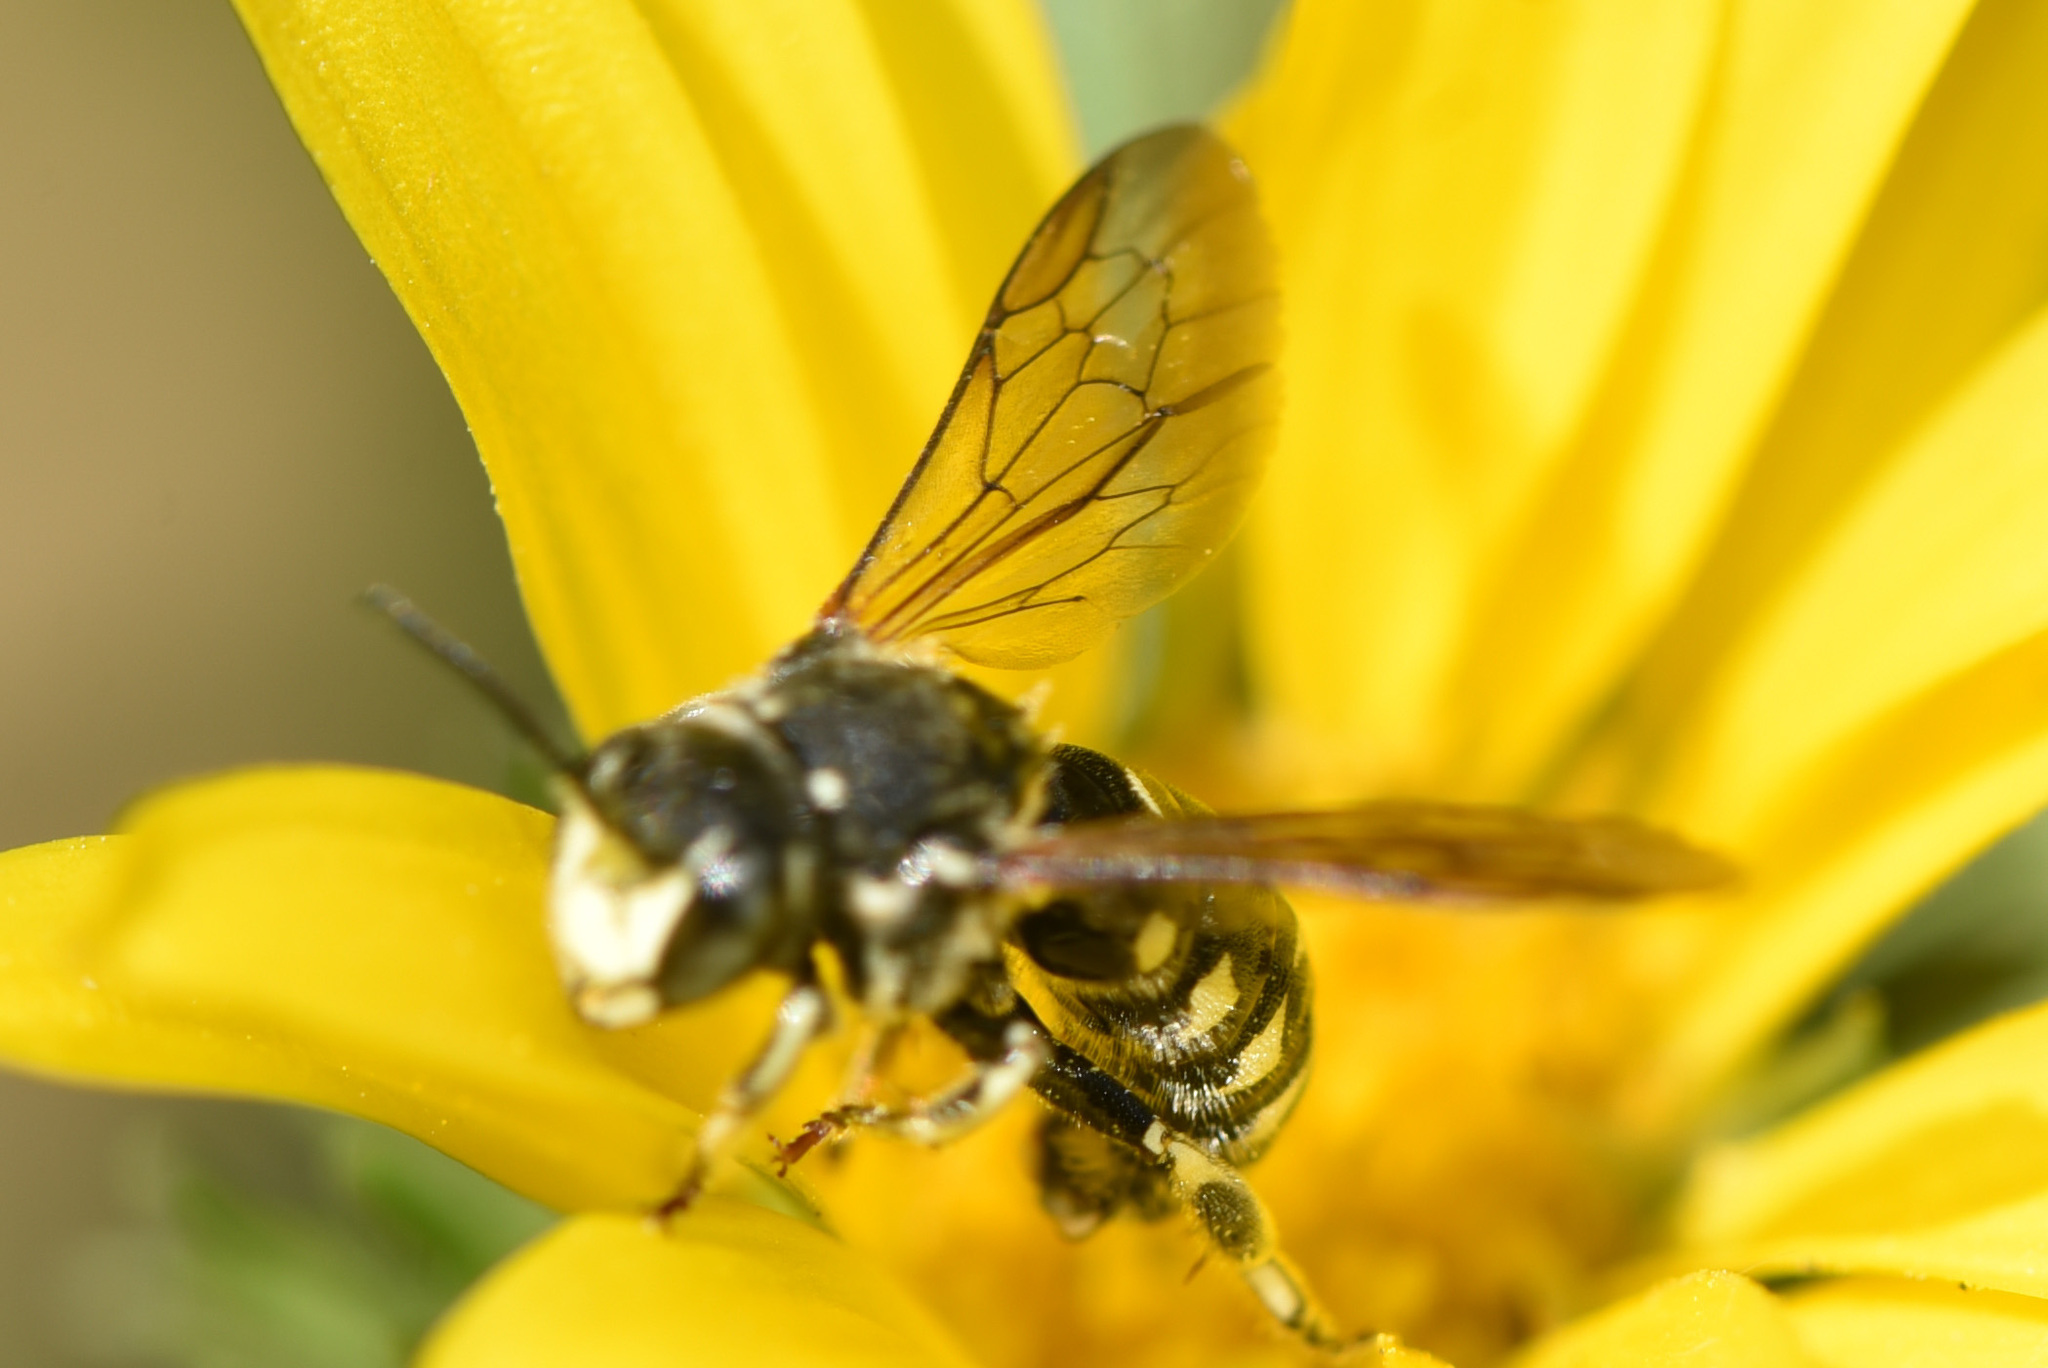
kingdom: Animalia
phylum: Arthropoda
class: Insecta
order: Hymenoptera
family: Megachilidae
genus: Dianthidium
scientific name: Dianthidium subparvum
